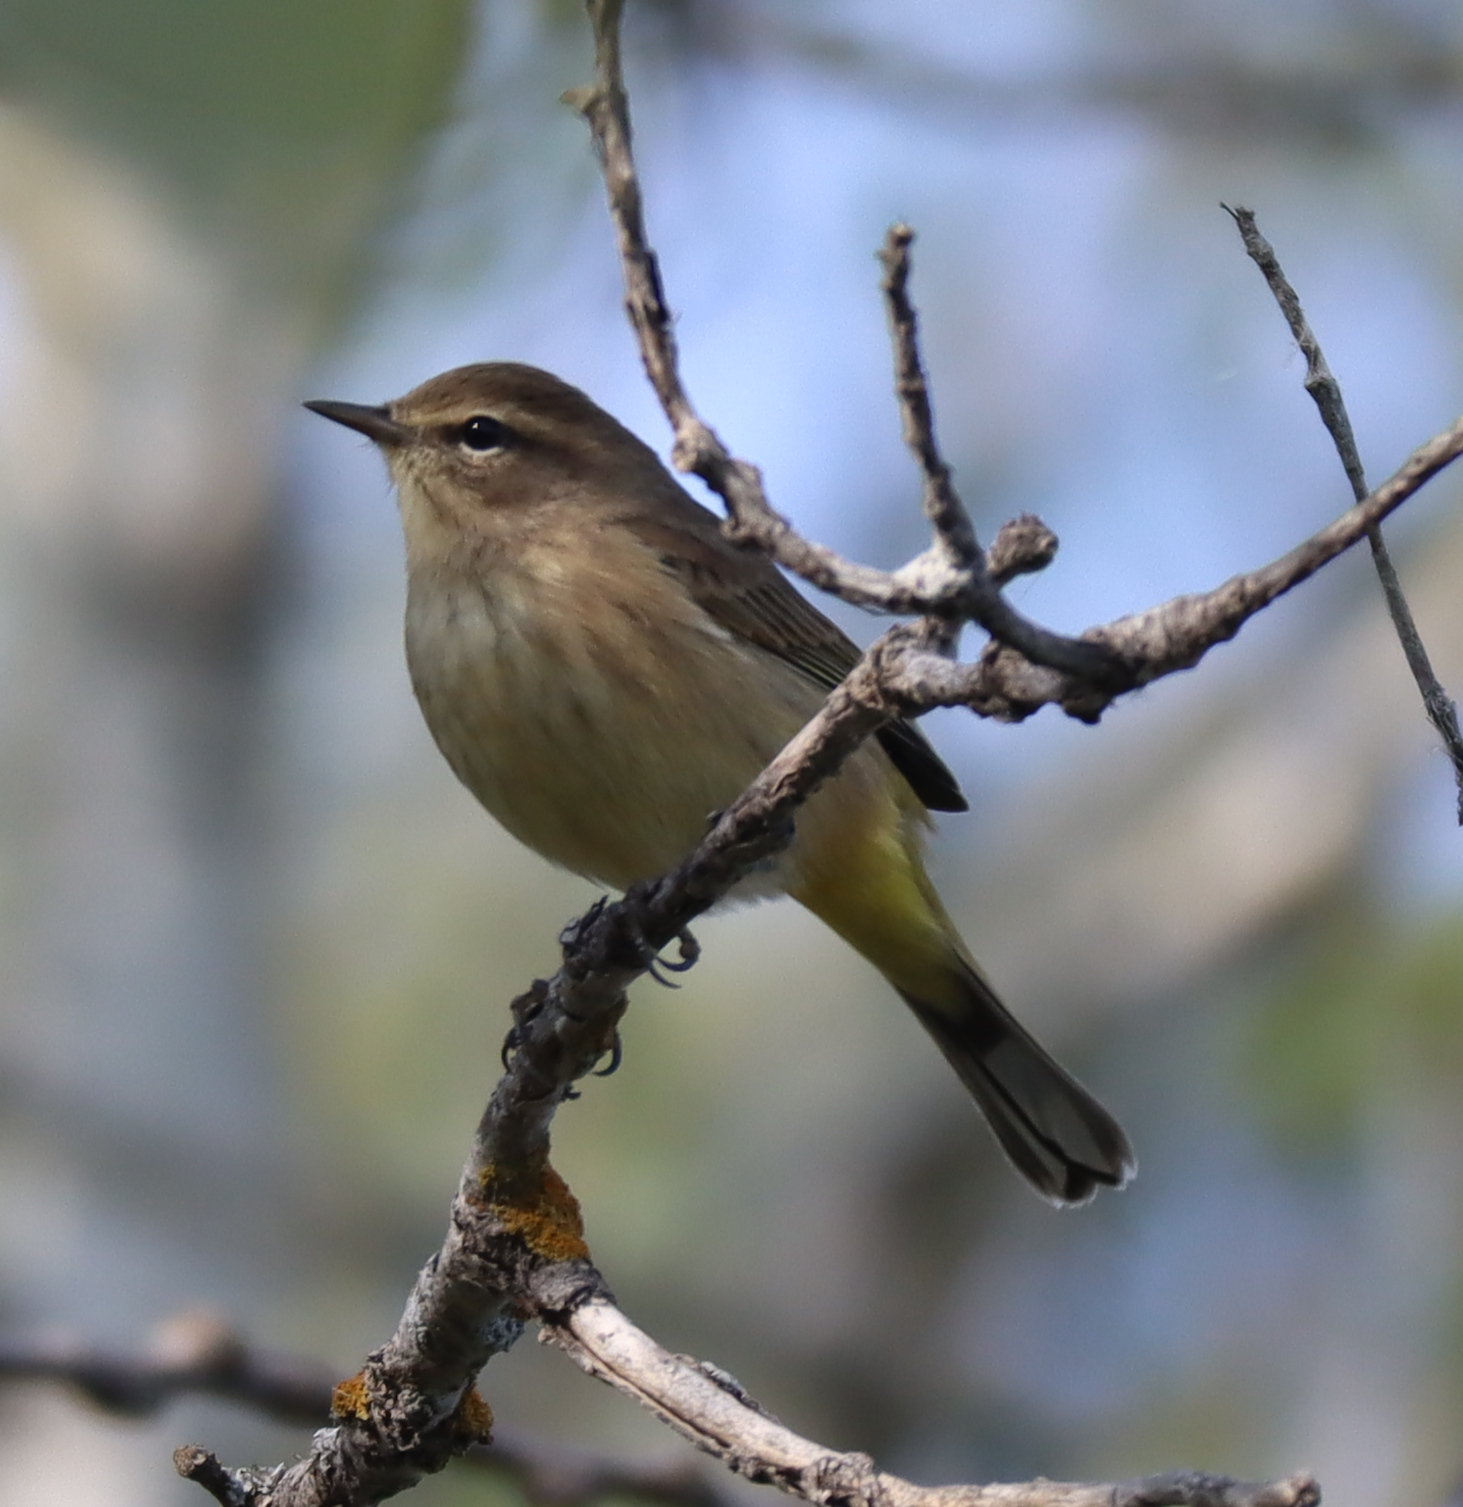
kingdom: Animalia
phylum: Chordata
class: Aves
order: Passeriformes
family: Parulidae
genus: Setophaga
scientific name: Setophaga palmarum
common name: Palm warbler
